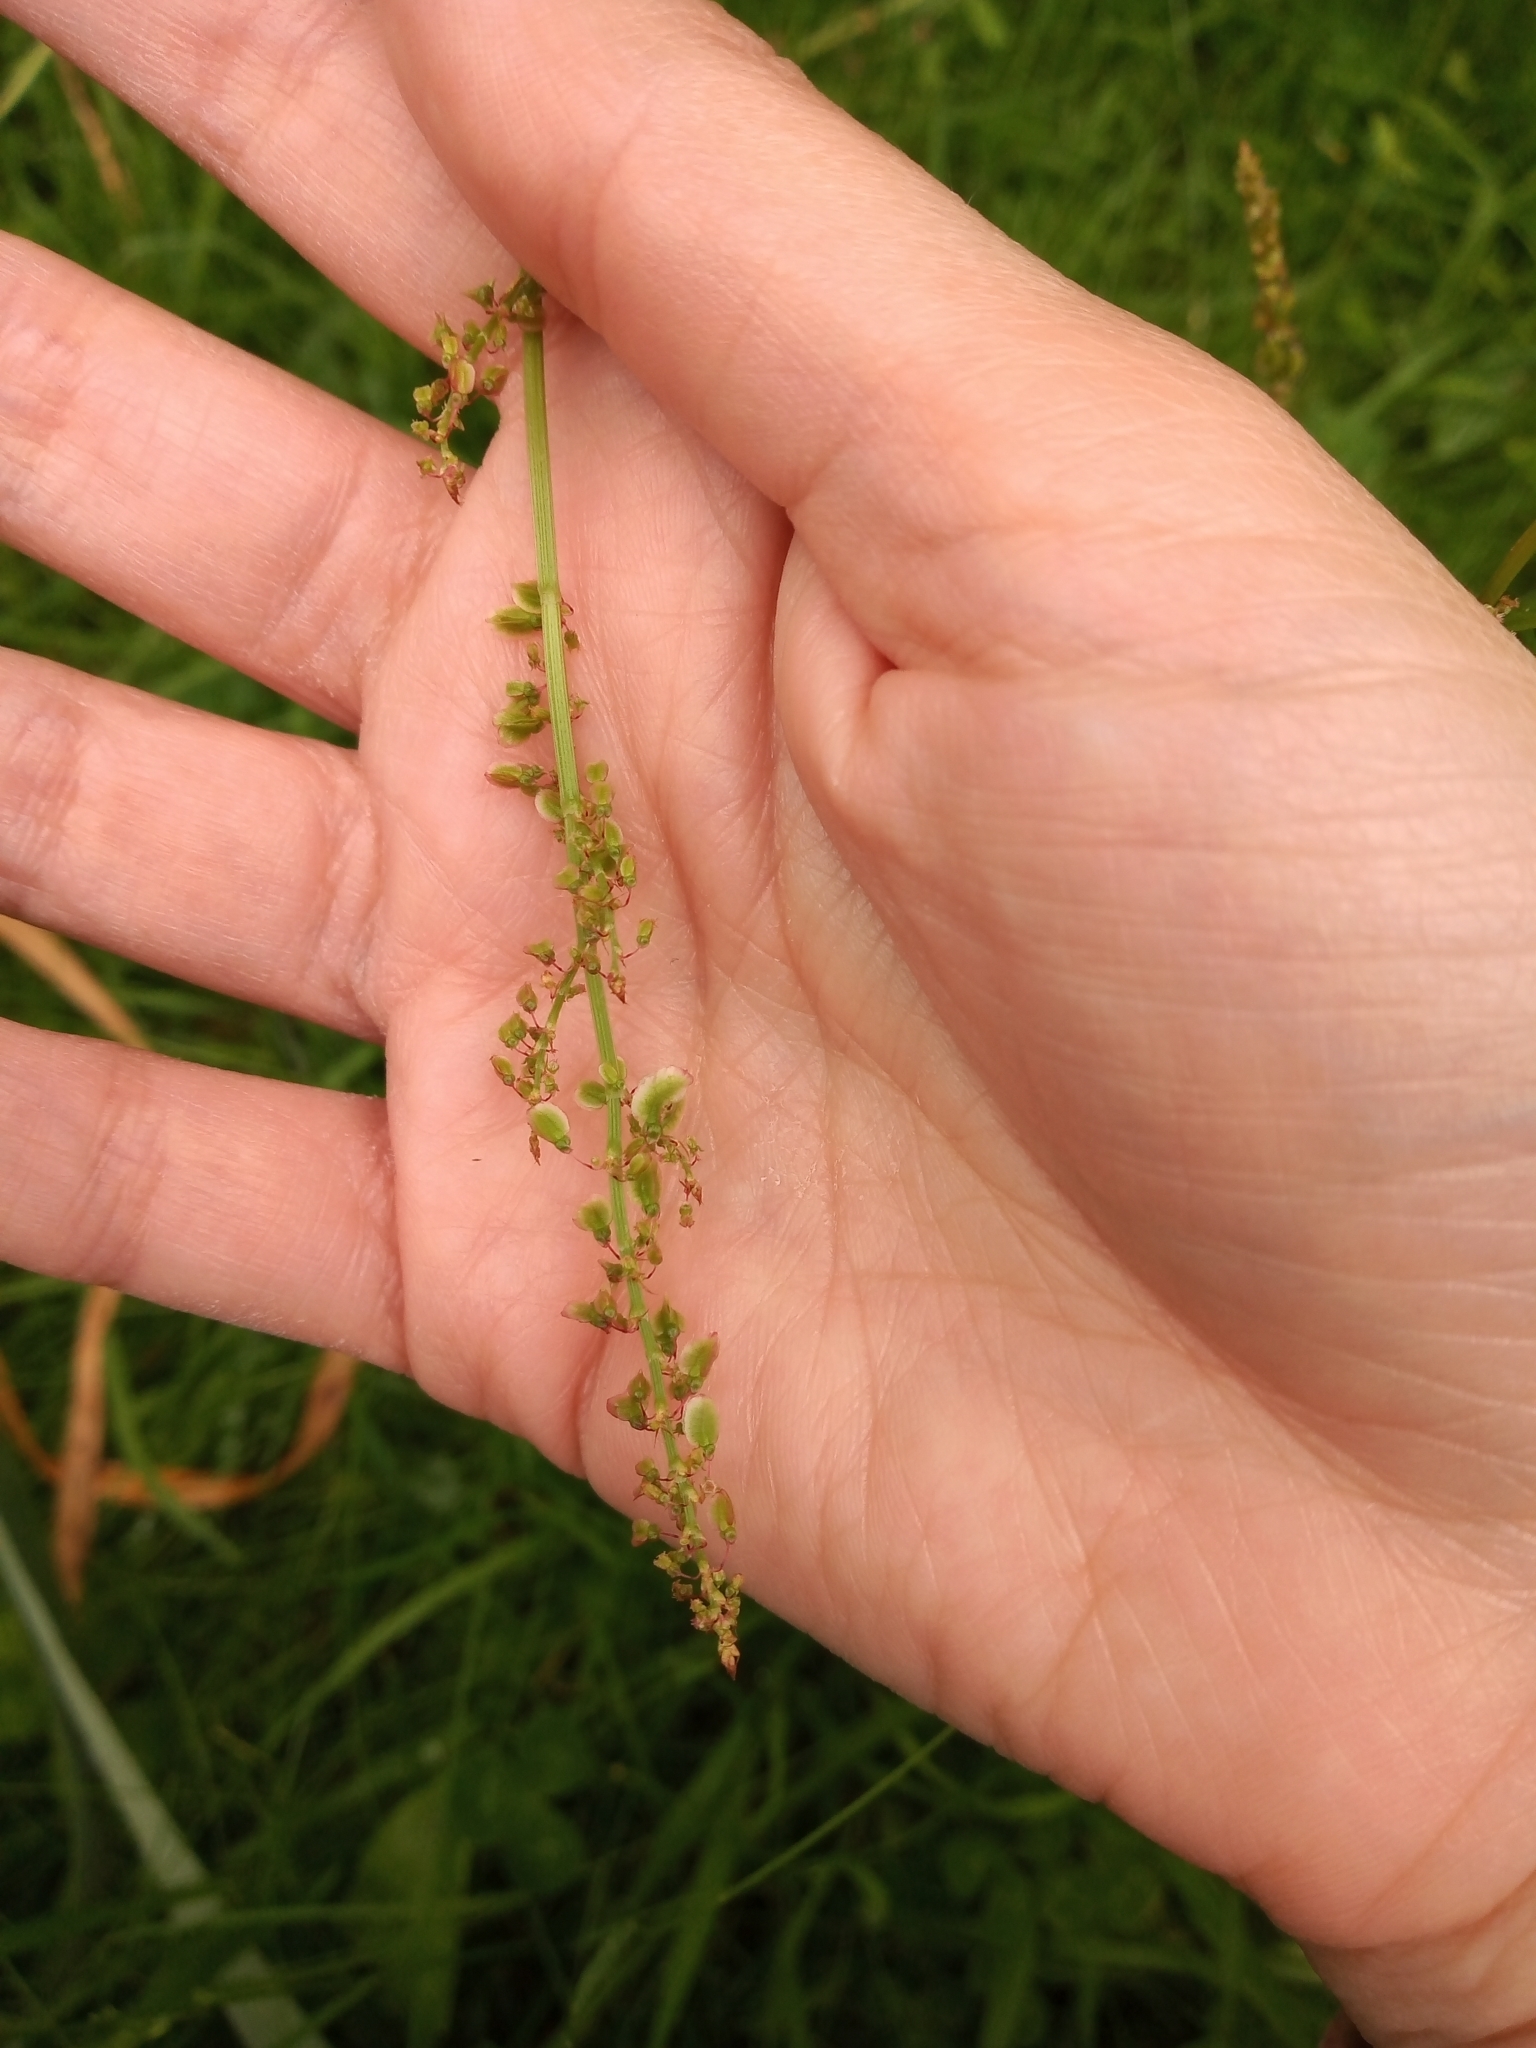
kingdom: Plantae
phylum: Tracheophyta
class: Magnoliopsida
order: Caryophyllales
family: Polygonaceae
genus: Rumex
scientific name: Rumex acetosa
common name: Garden sorrel
